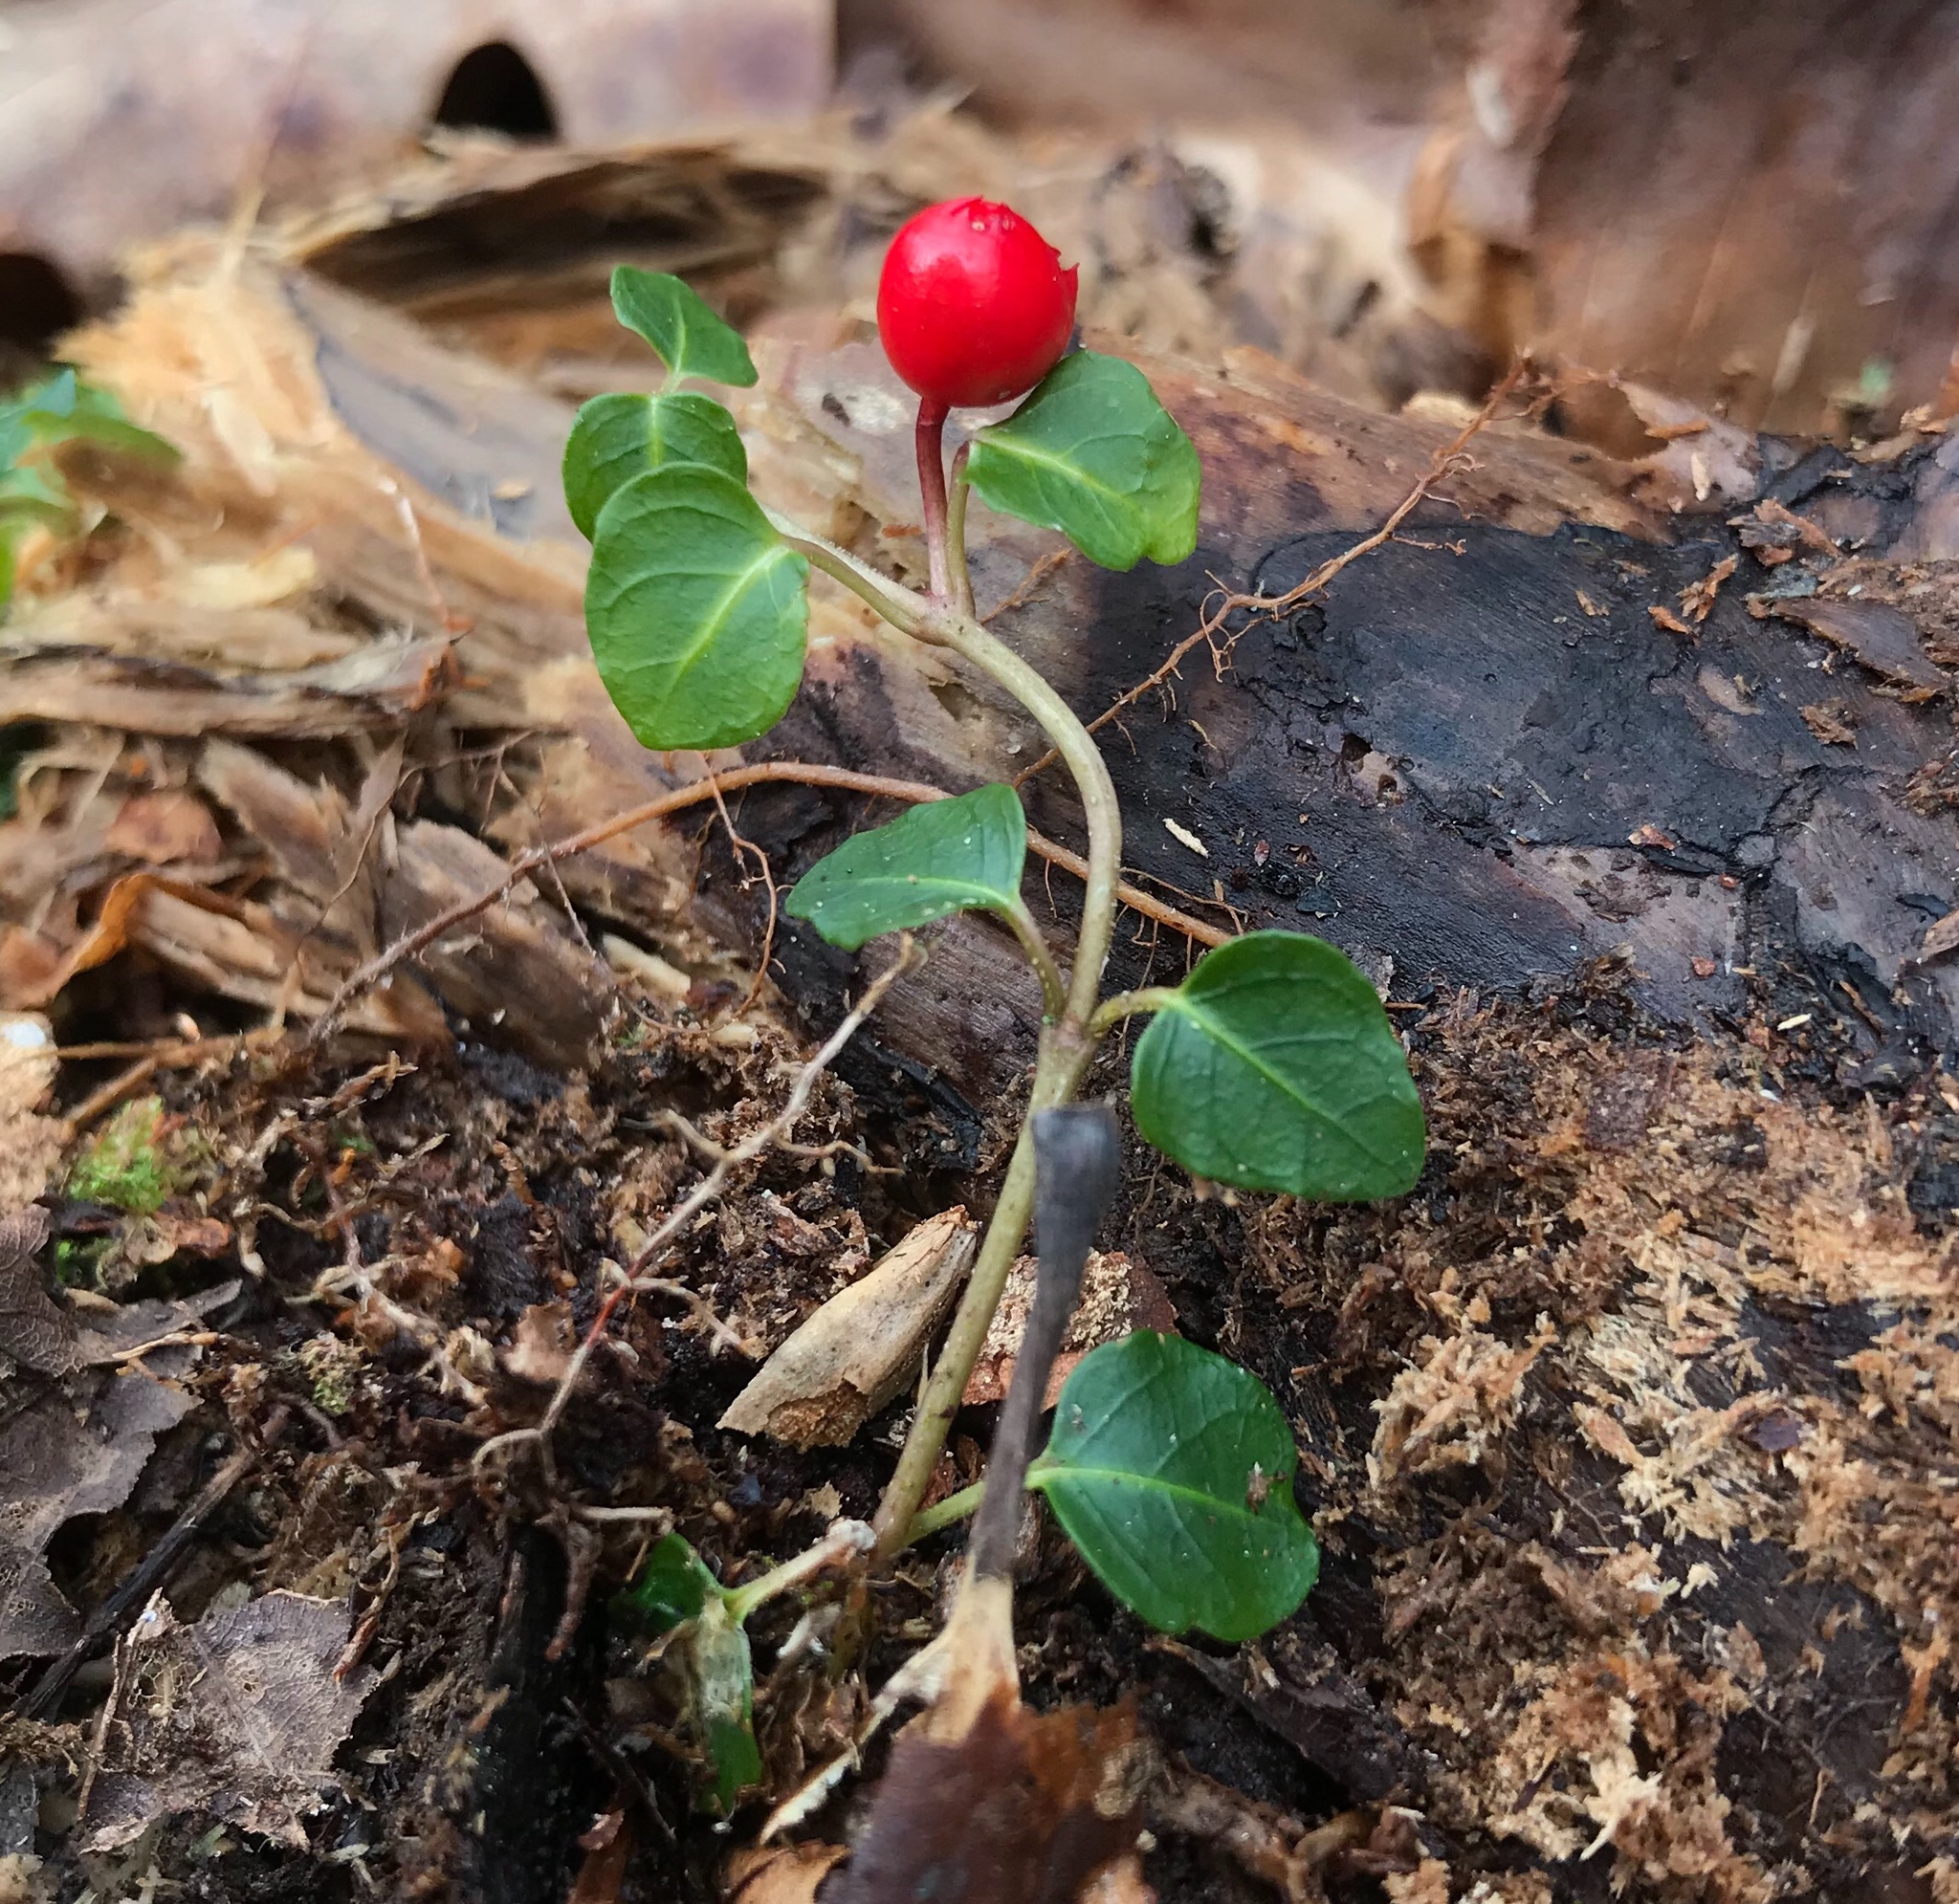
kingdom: Plantae
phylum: Tracheophyta
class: Magnoliopsida
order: Gentianales
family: Rubiaceae
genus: Mitchella
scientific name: Mitchella repens
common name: Partridge-berry
